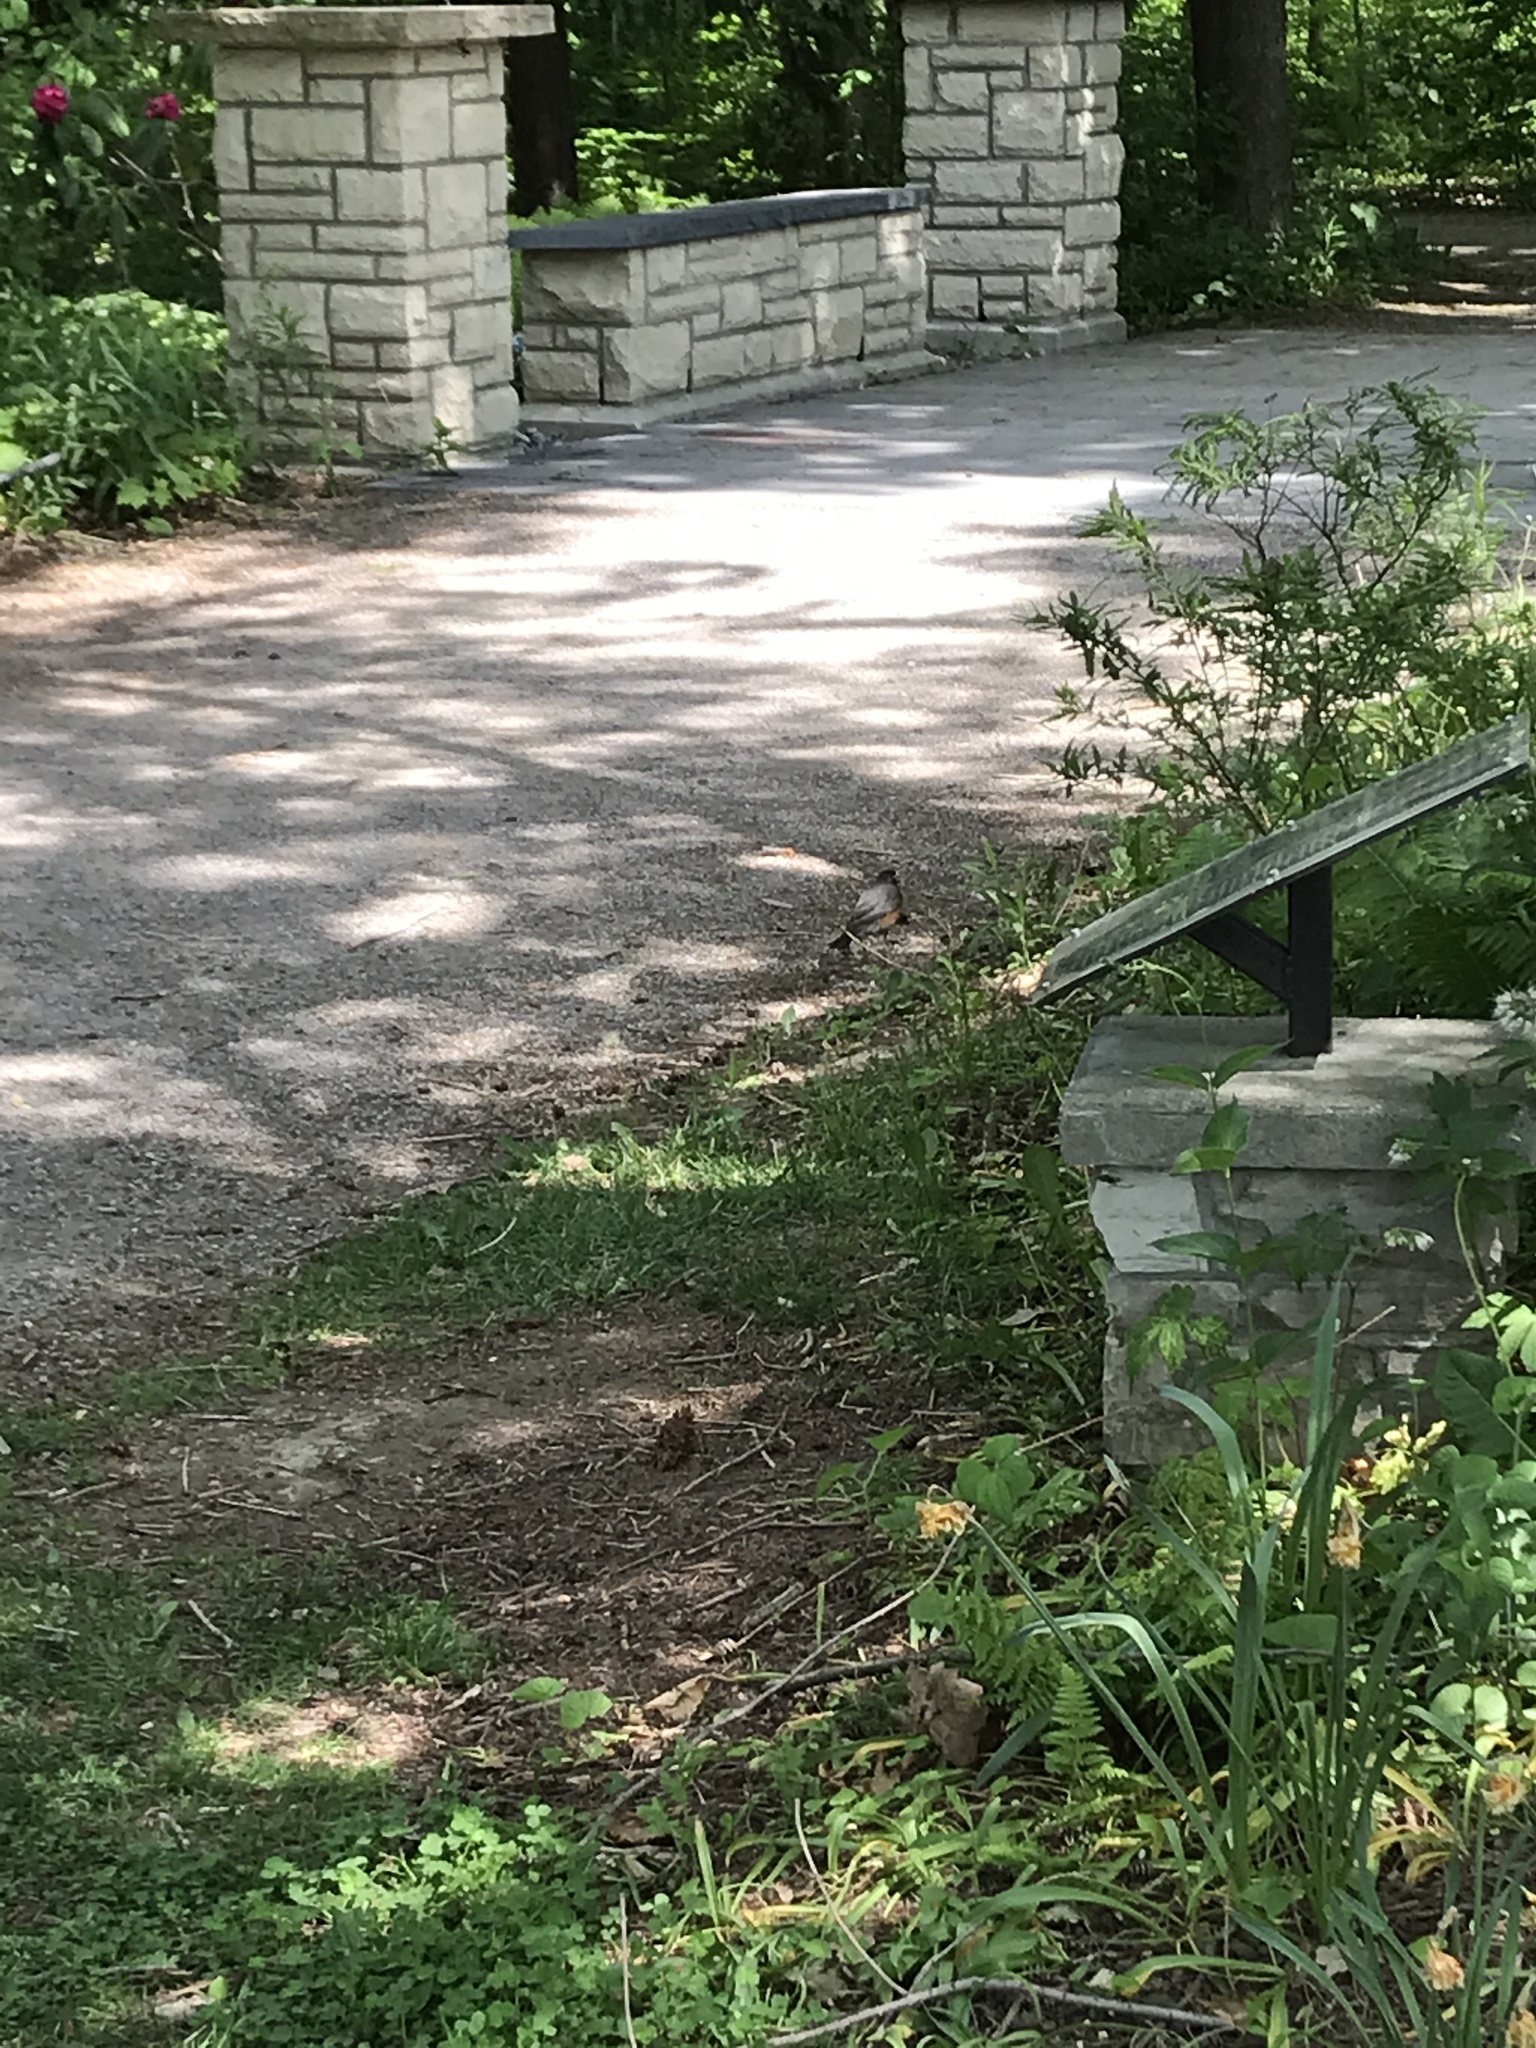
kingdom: Animalia
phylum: Chordata
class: Aves
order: Passeriformes
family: Turdidae
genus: Turdus
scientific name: Turdus migratorius
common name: American robin
